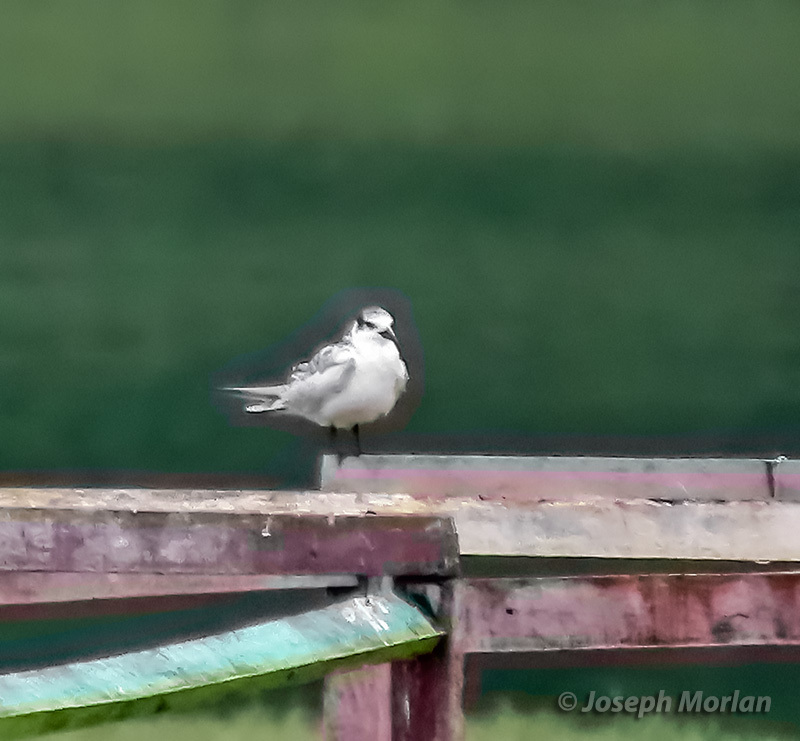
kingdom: Animalia
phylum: Chordata
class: Aves
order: Charadriiformes
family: Laridae
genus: Chlidonias
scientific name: Chlidonias hybrida
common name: Whiskered tern
